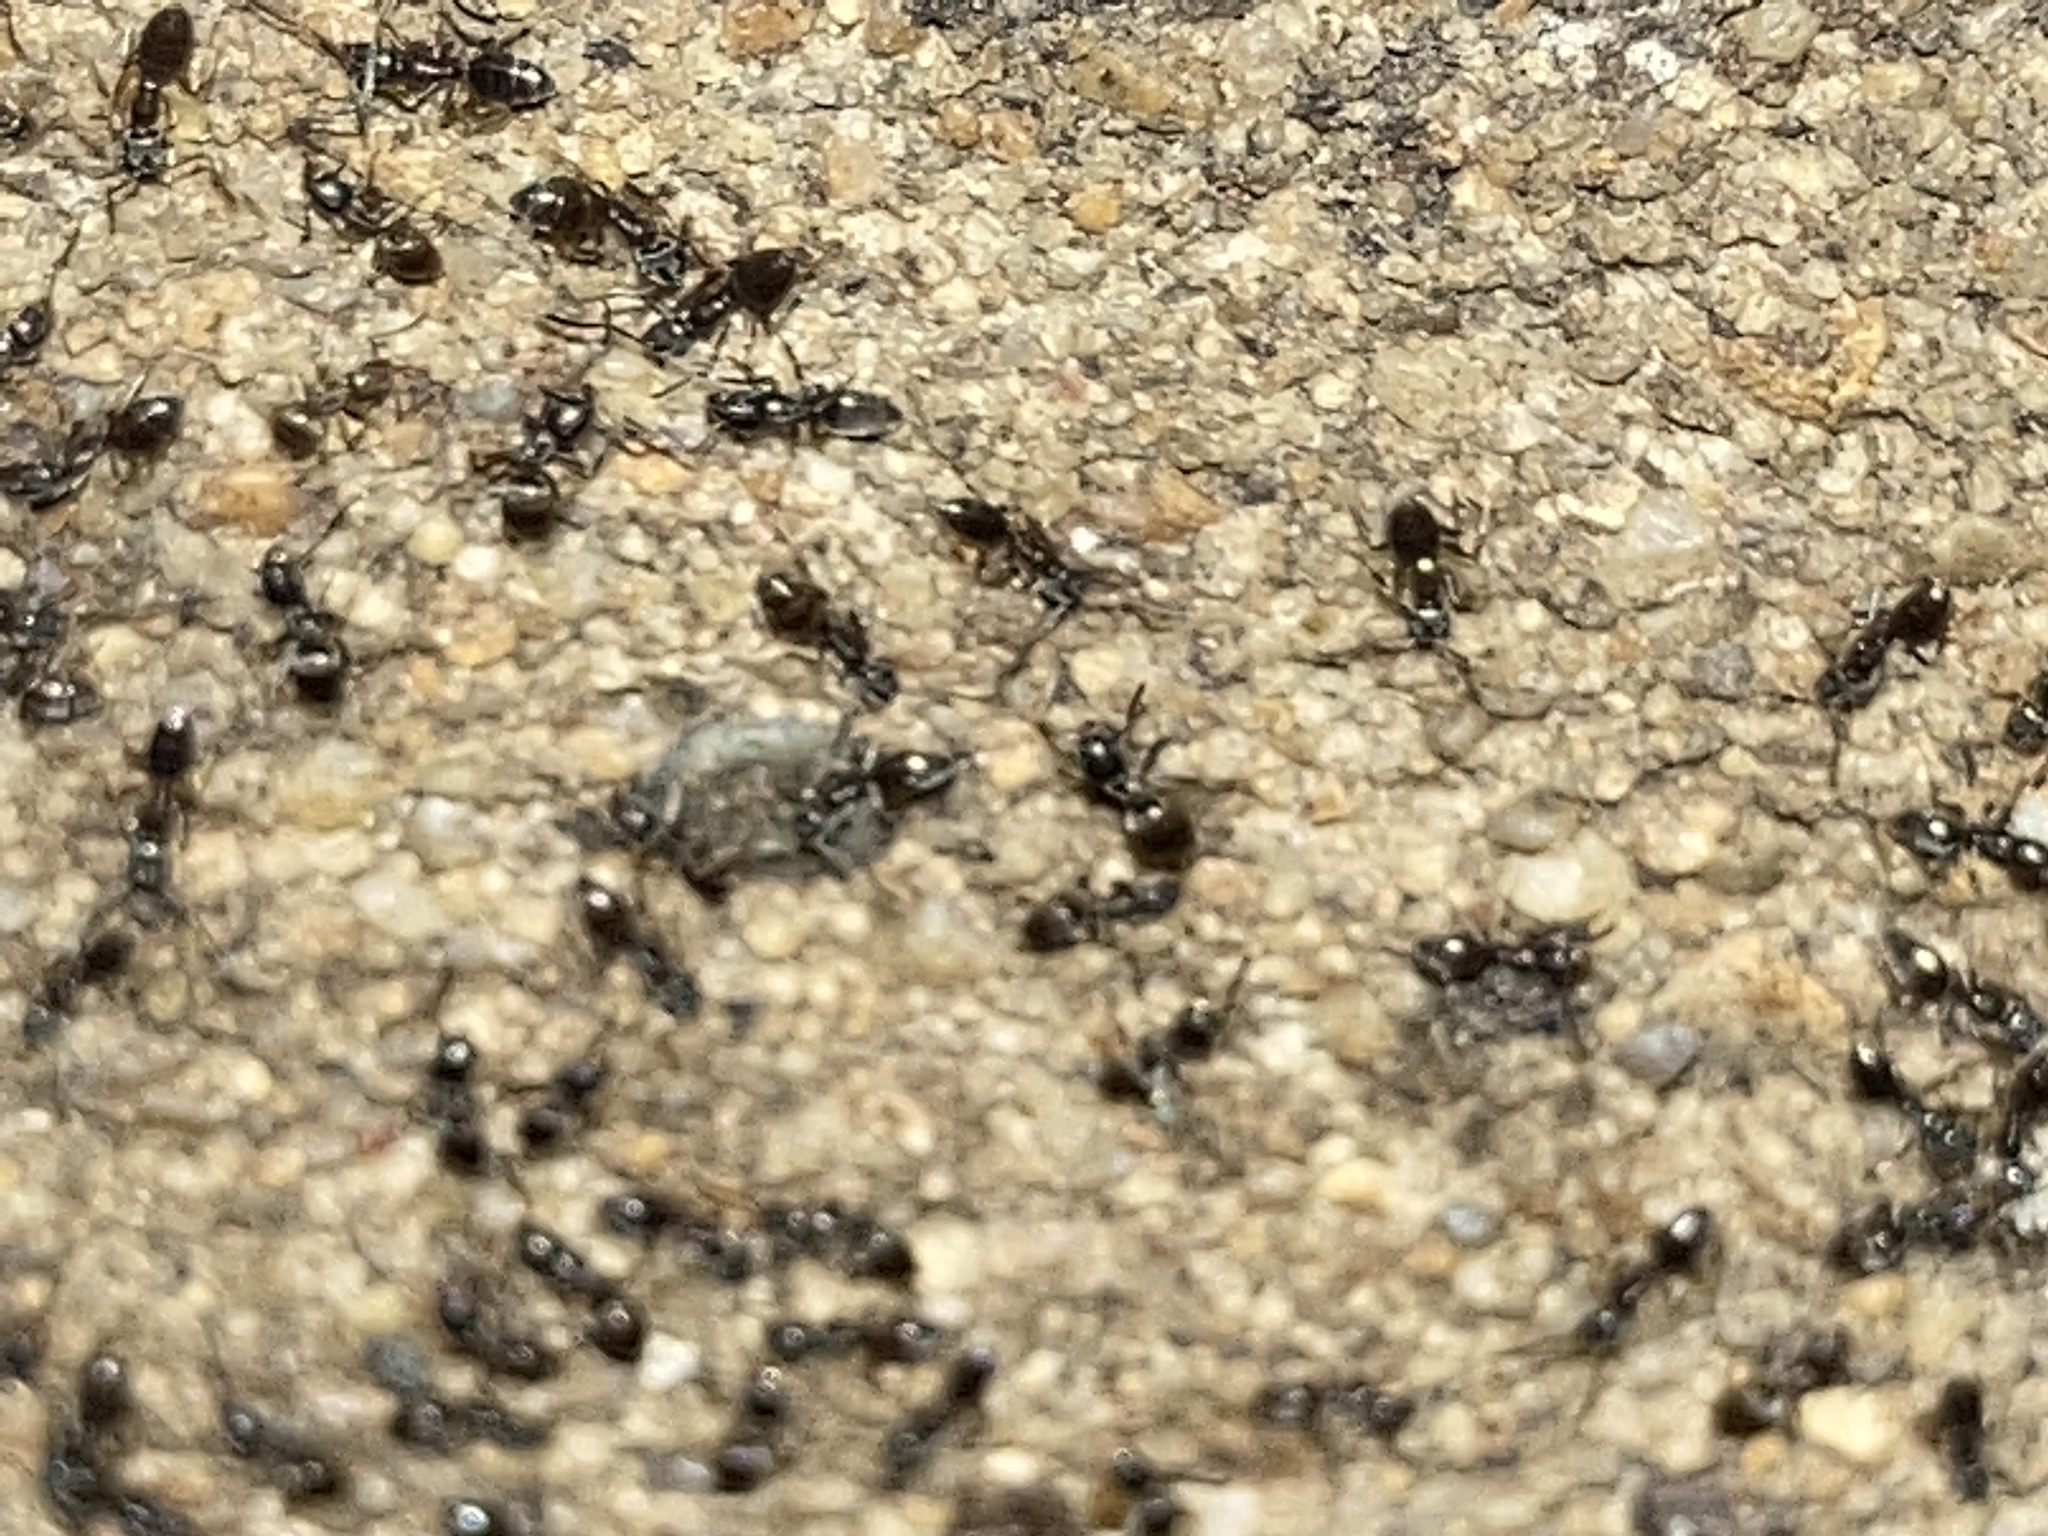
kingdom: Animalia
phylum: Arthropoda
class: Insecta
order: Hymenoptera
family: Formicidae
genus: Tapinoma
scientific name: Tapinoma sessile
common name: Odorous house ant
